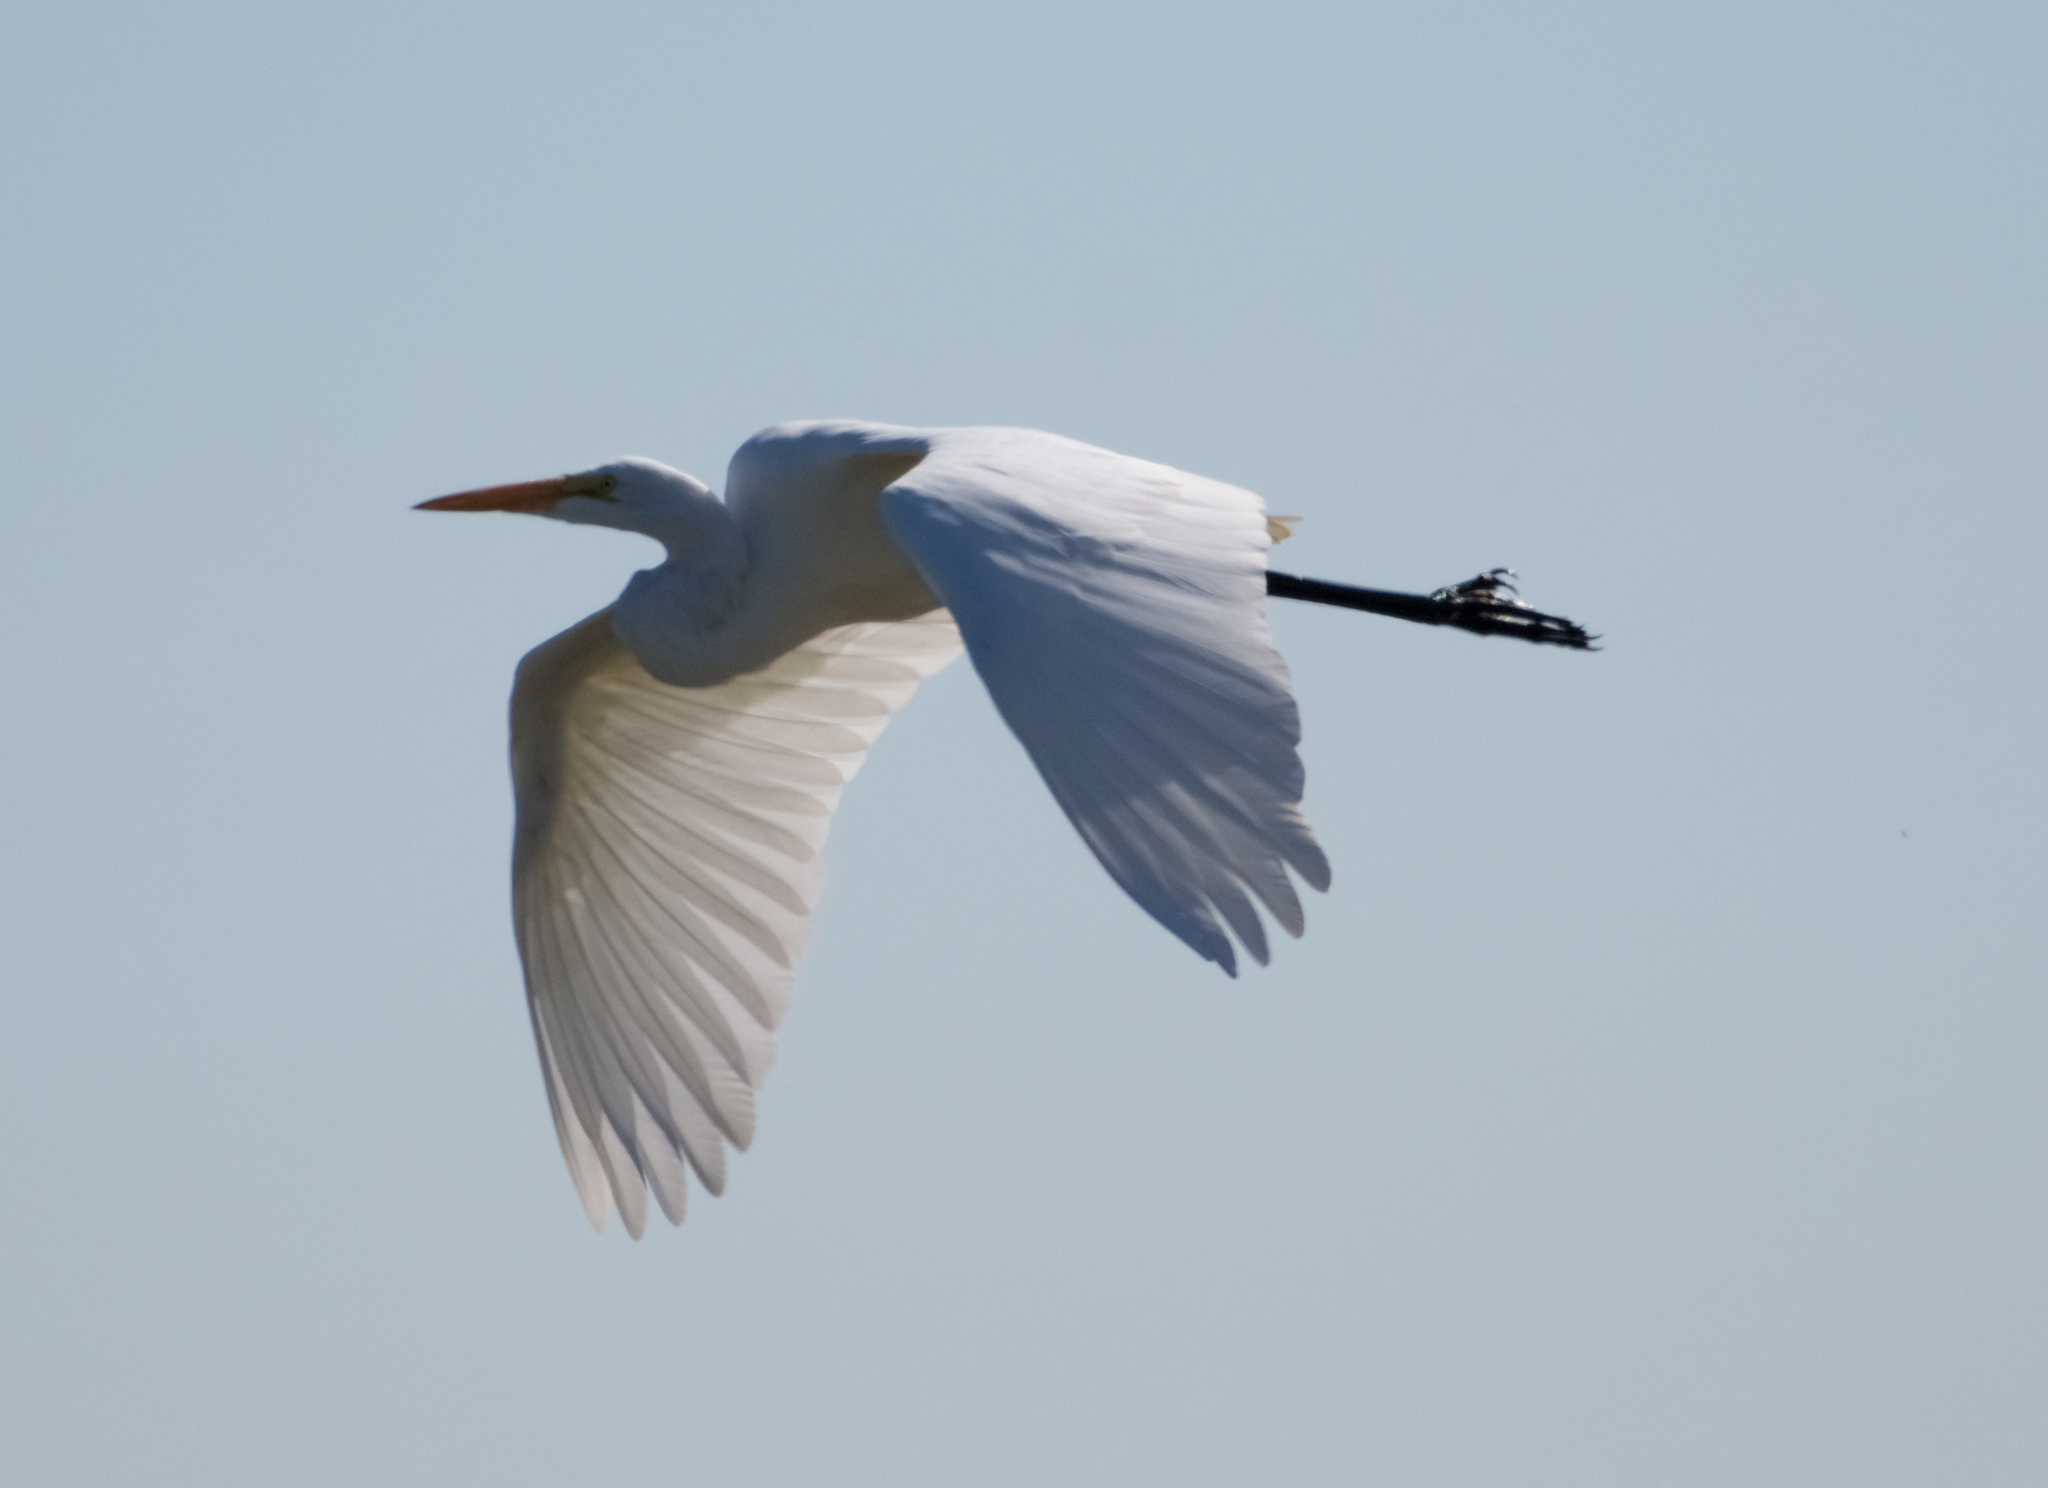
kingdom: Animalia
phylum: Chordata
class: Aves
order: Pelecaniformes
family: Ardeidae
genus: Ardea
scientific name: Ardea alba
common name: Great egret
